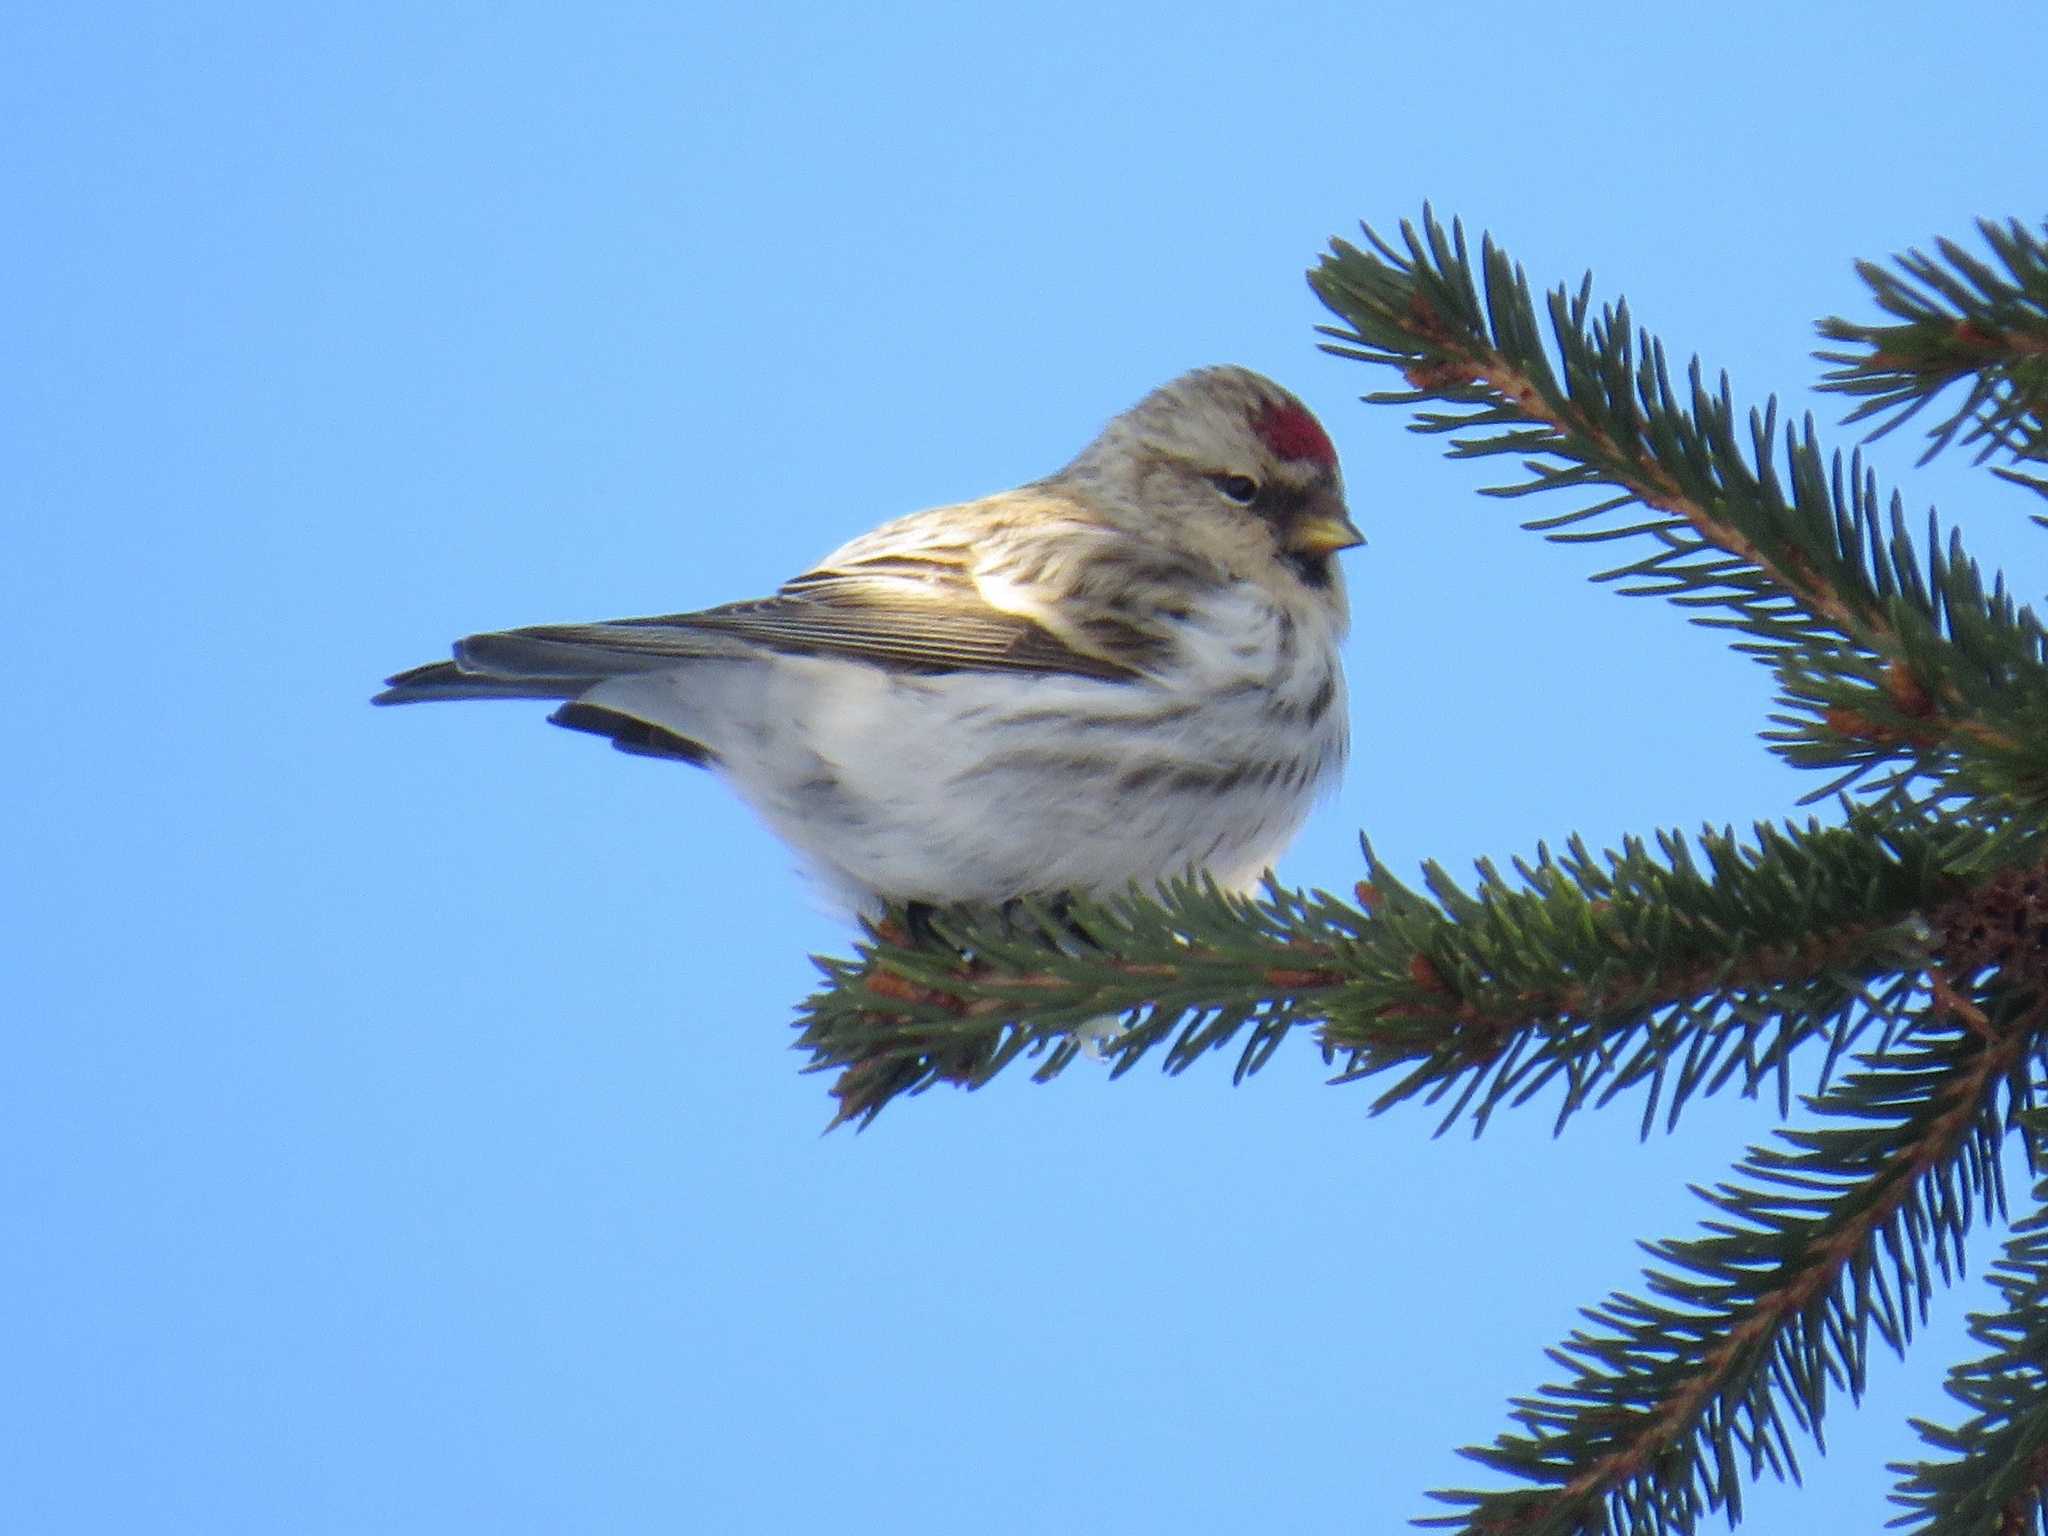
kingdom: Animalia
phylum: Chordata
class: Aves
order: Passeriformes
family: Fringillidae
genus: Acanthis
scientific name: Acanthis flammea
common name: Common redpoll
